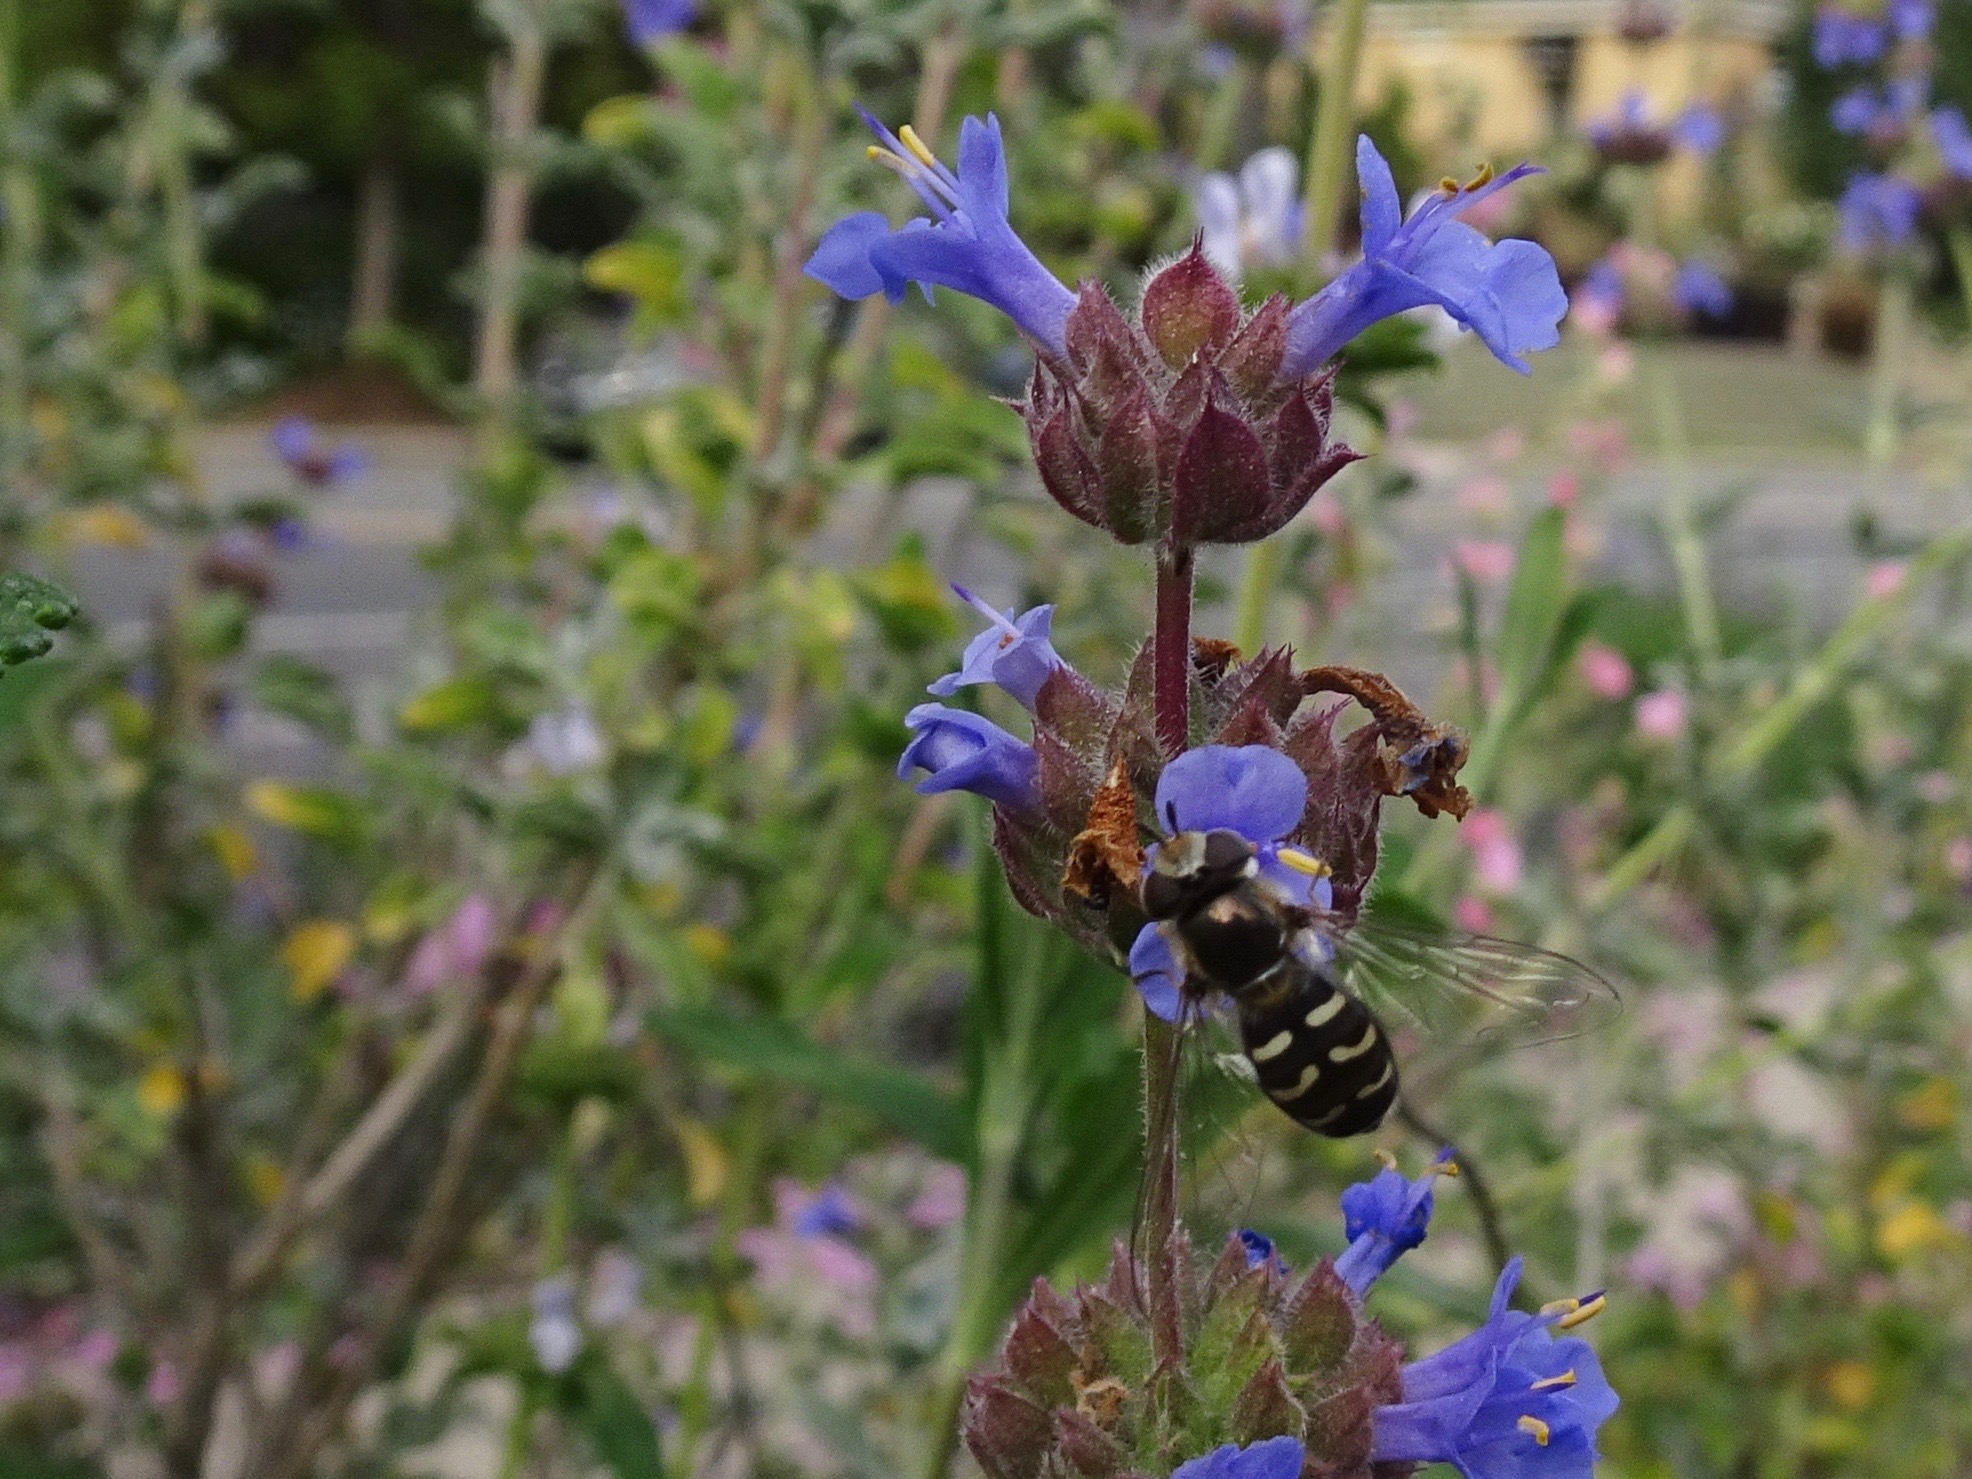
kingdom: Animalia
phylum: Arthropoda
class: Insecta
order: Diptera
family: Syrphidae
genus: Scaeva
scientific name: Scaeva affinis
